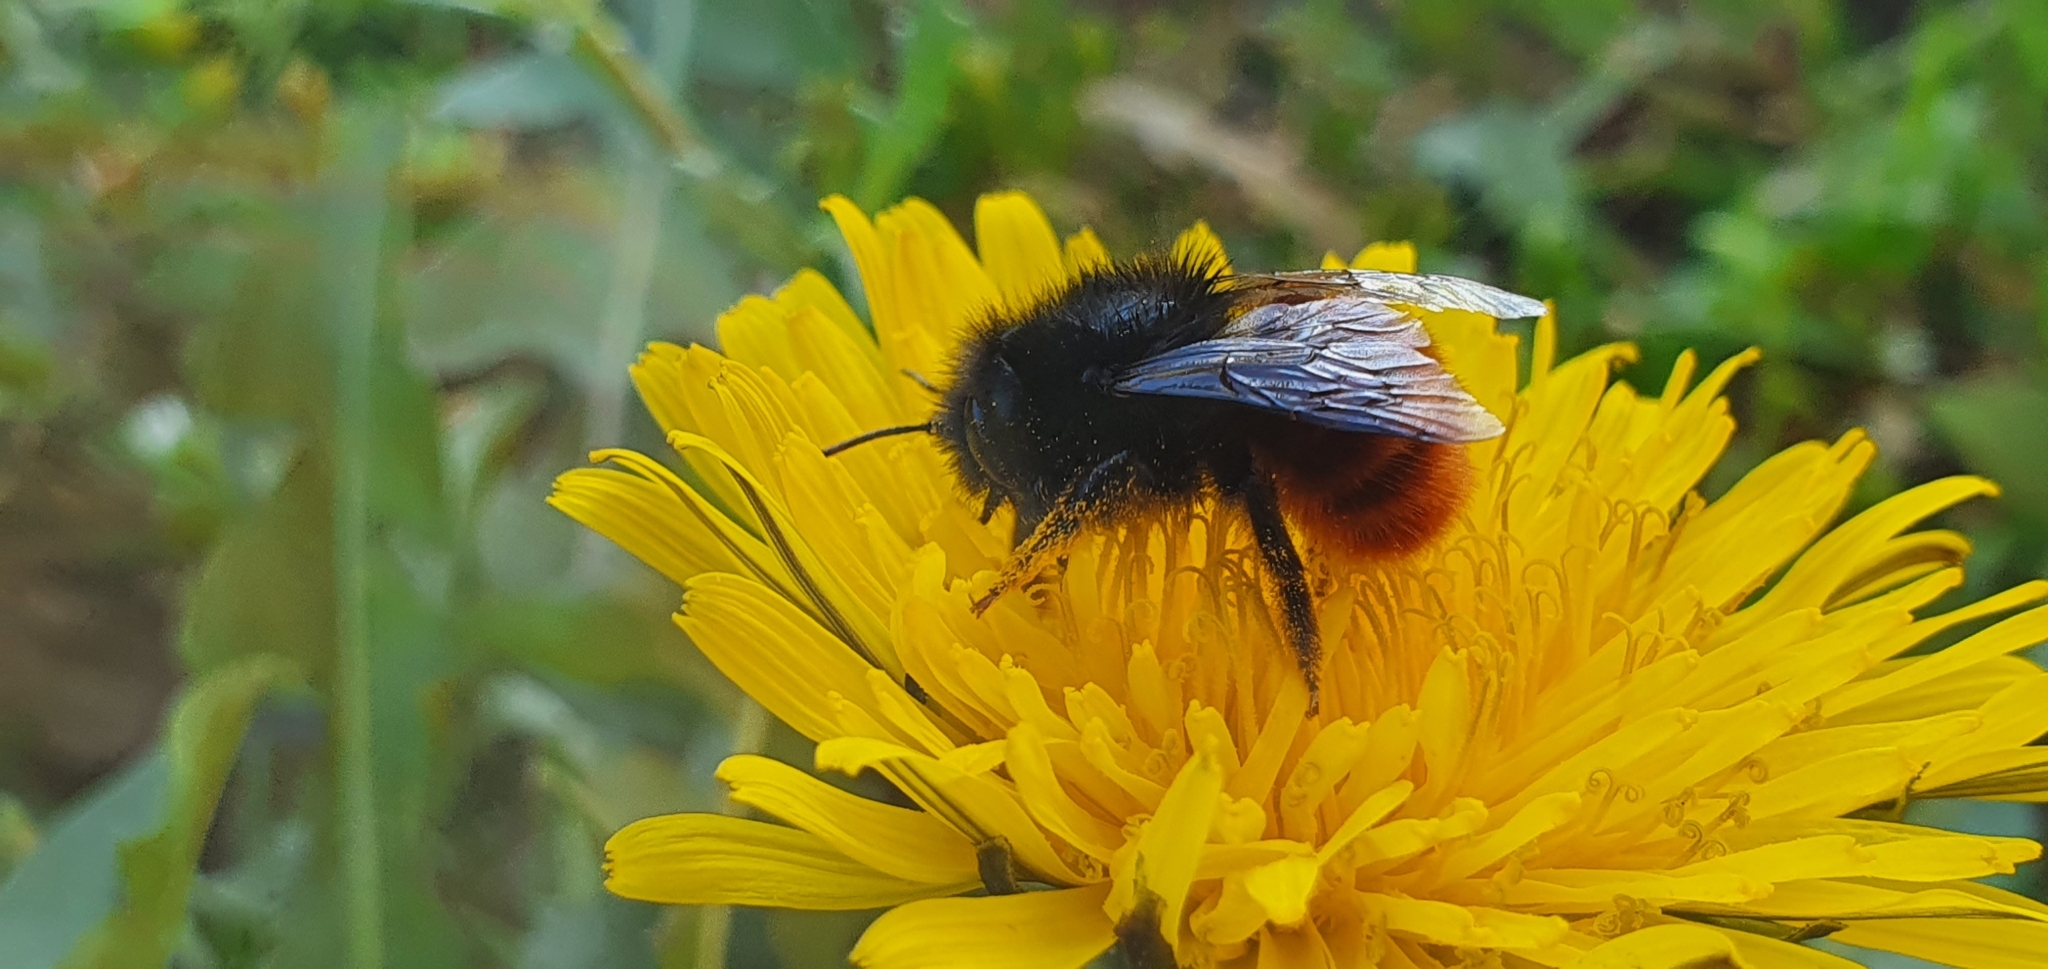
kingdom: Animalia
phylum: Arthropoda
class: Insecta
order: Hymenoptera
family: Megachilidae
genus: Osmia
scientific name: Osmia cornuta
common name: Mason bee
